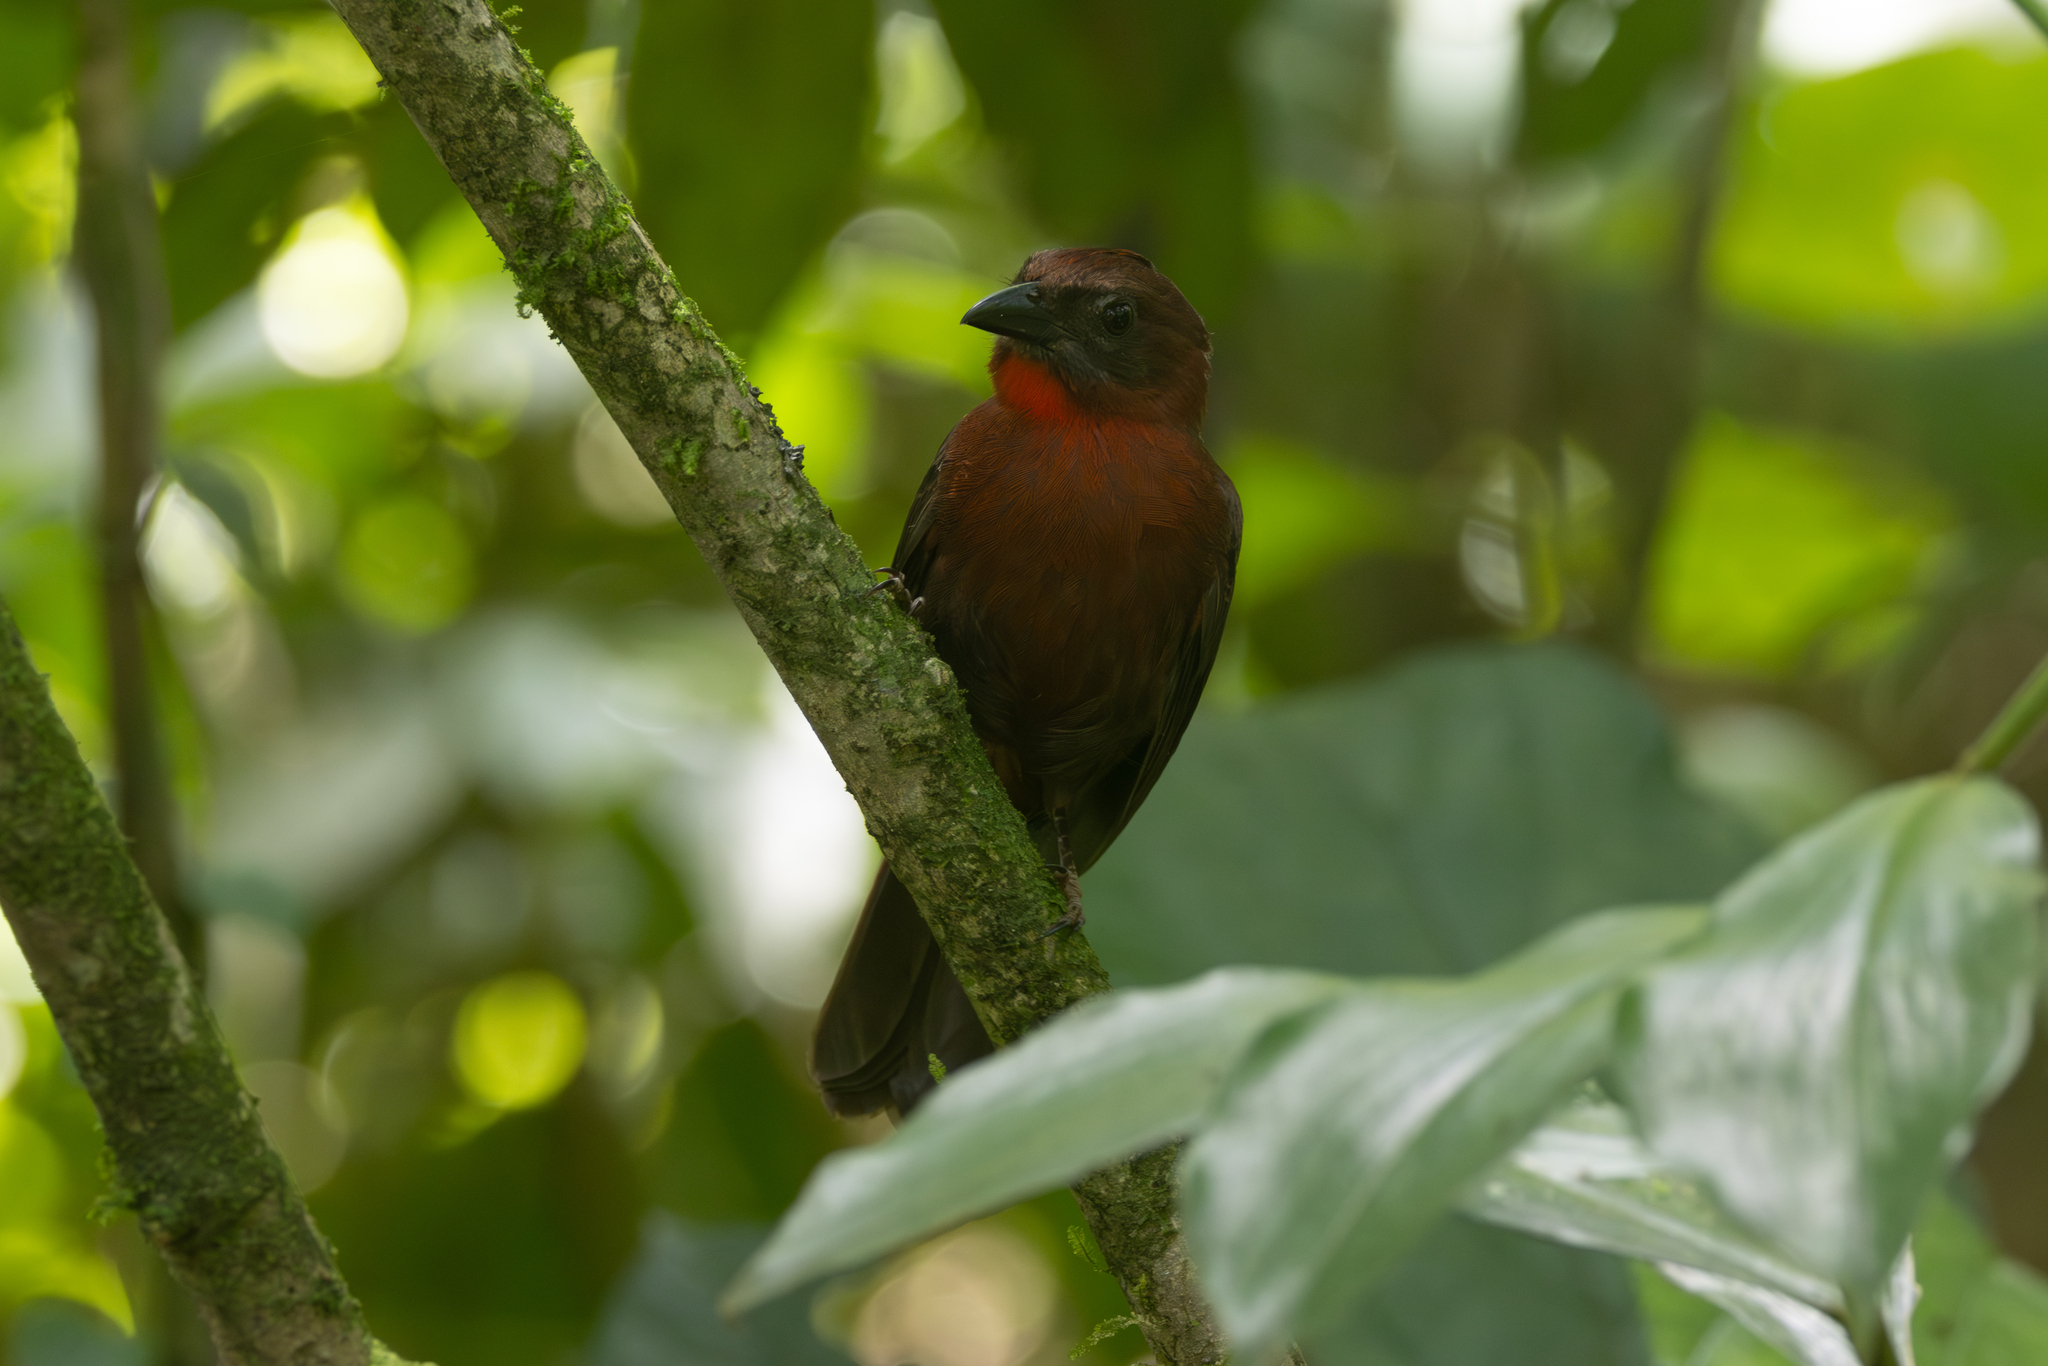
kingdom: Animalia
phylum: Chordata
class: Aves
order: Passeriformes
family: Cardinalidae
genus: Habia
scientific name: Habia fuscicauda
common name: Red-throated ant-tanager
